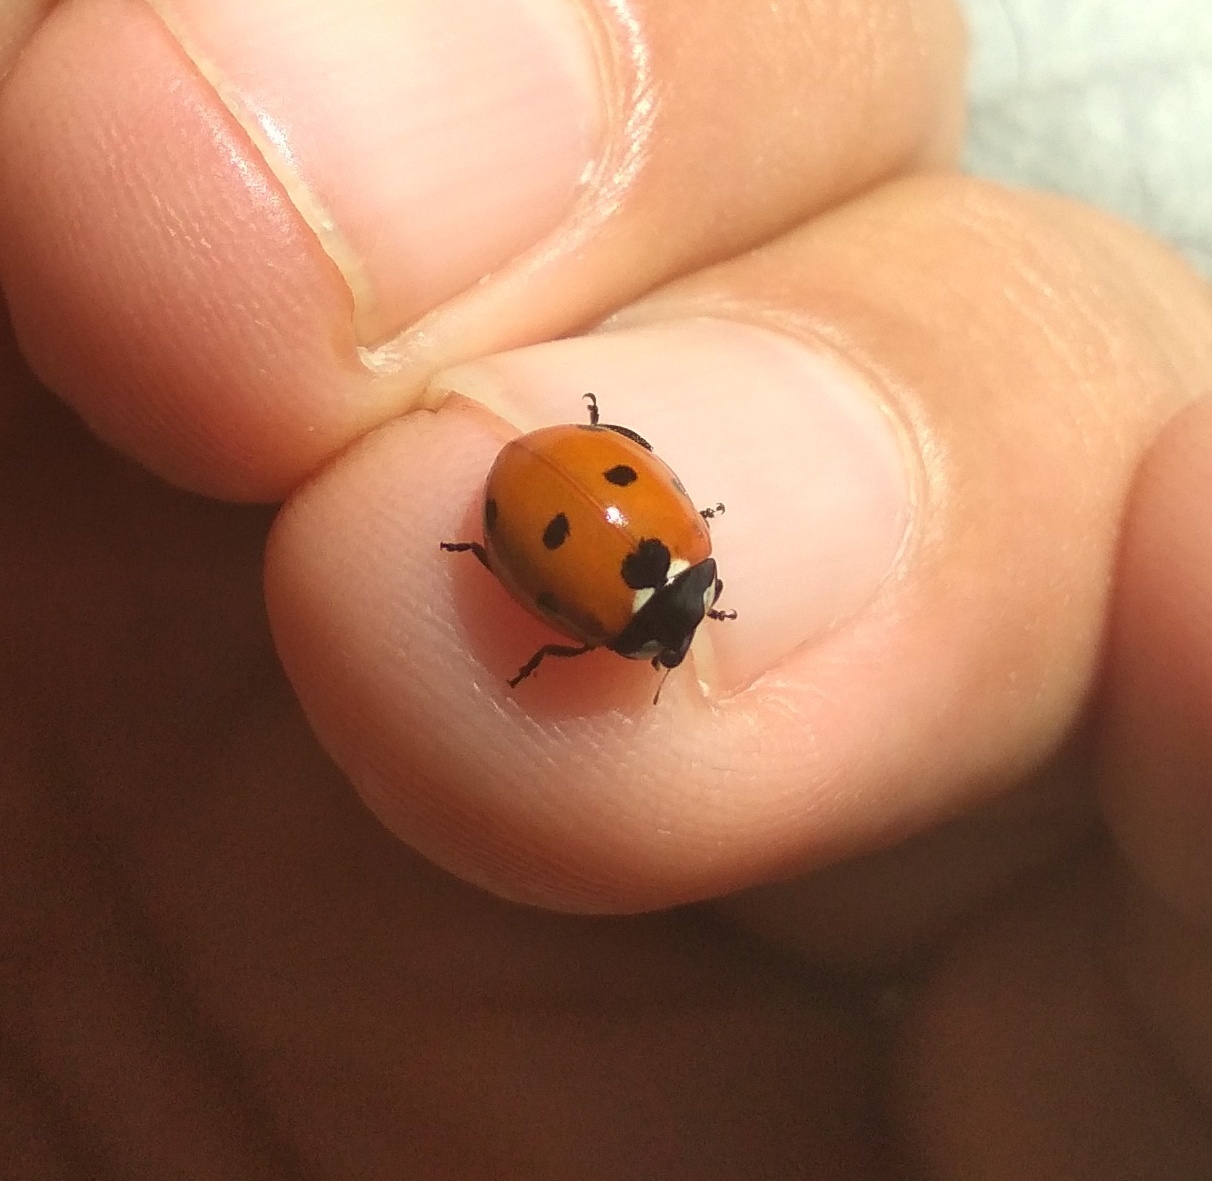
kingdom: Animalia
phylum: Arthropoda
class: Insecta
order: Coleoptera
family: Coccinellidae
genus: Coccinella
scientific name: Coccinella septempunctata
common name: Sevenspotted lady beetle
